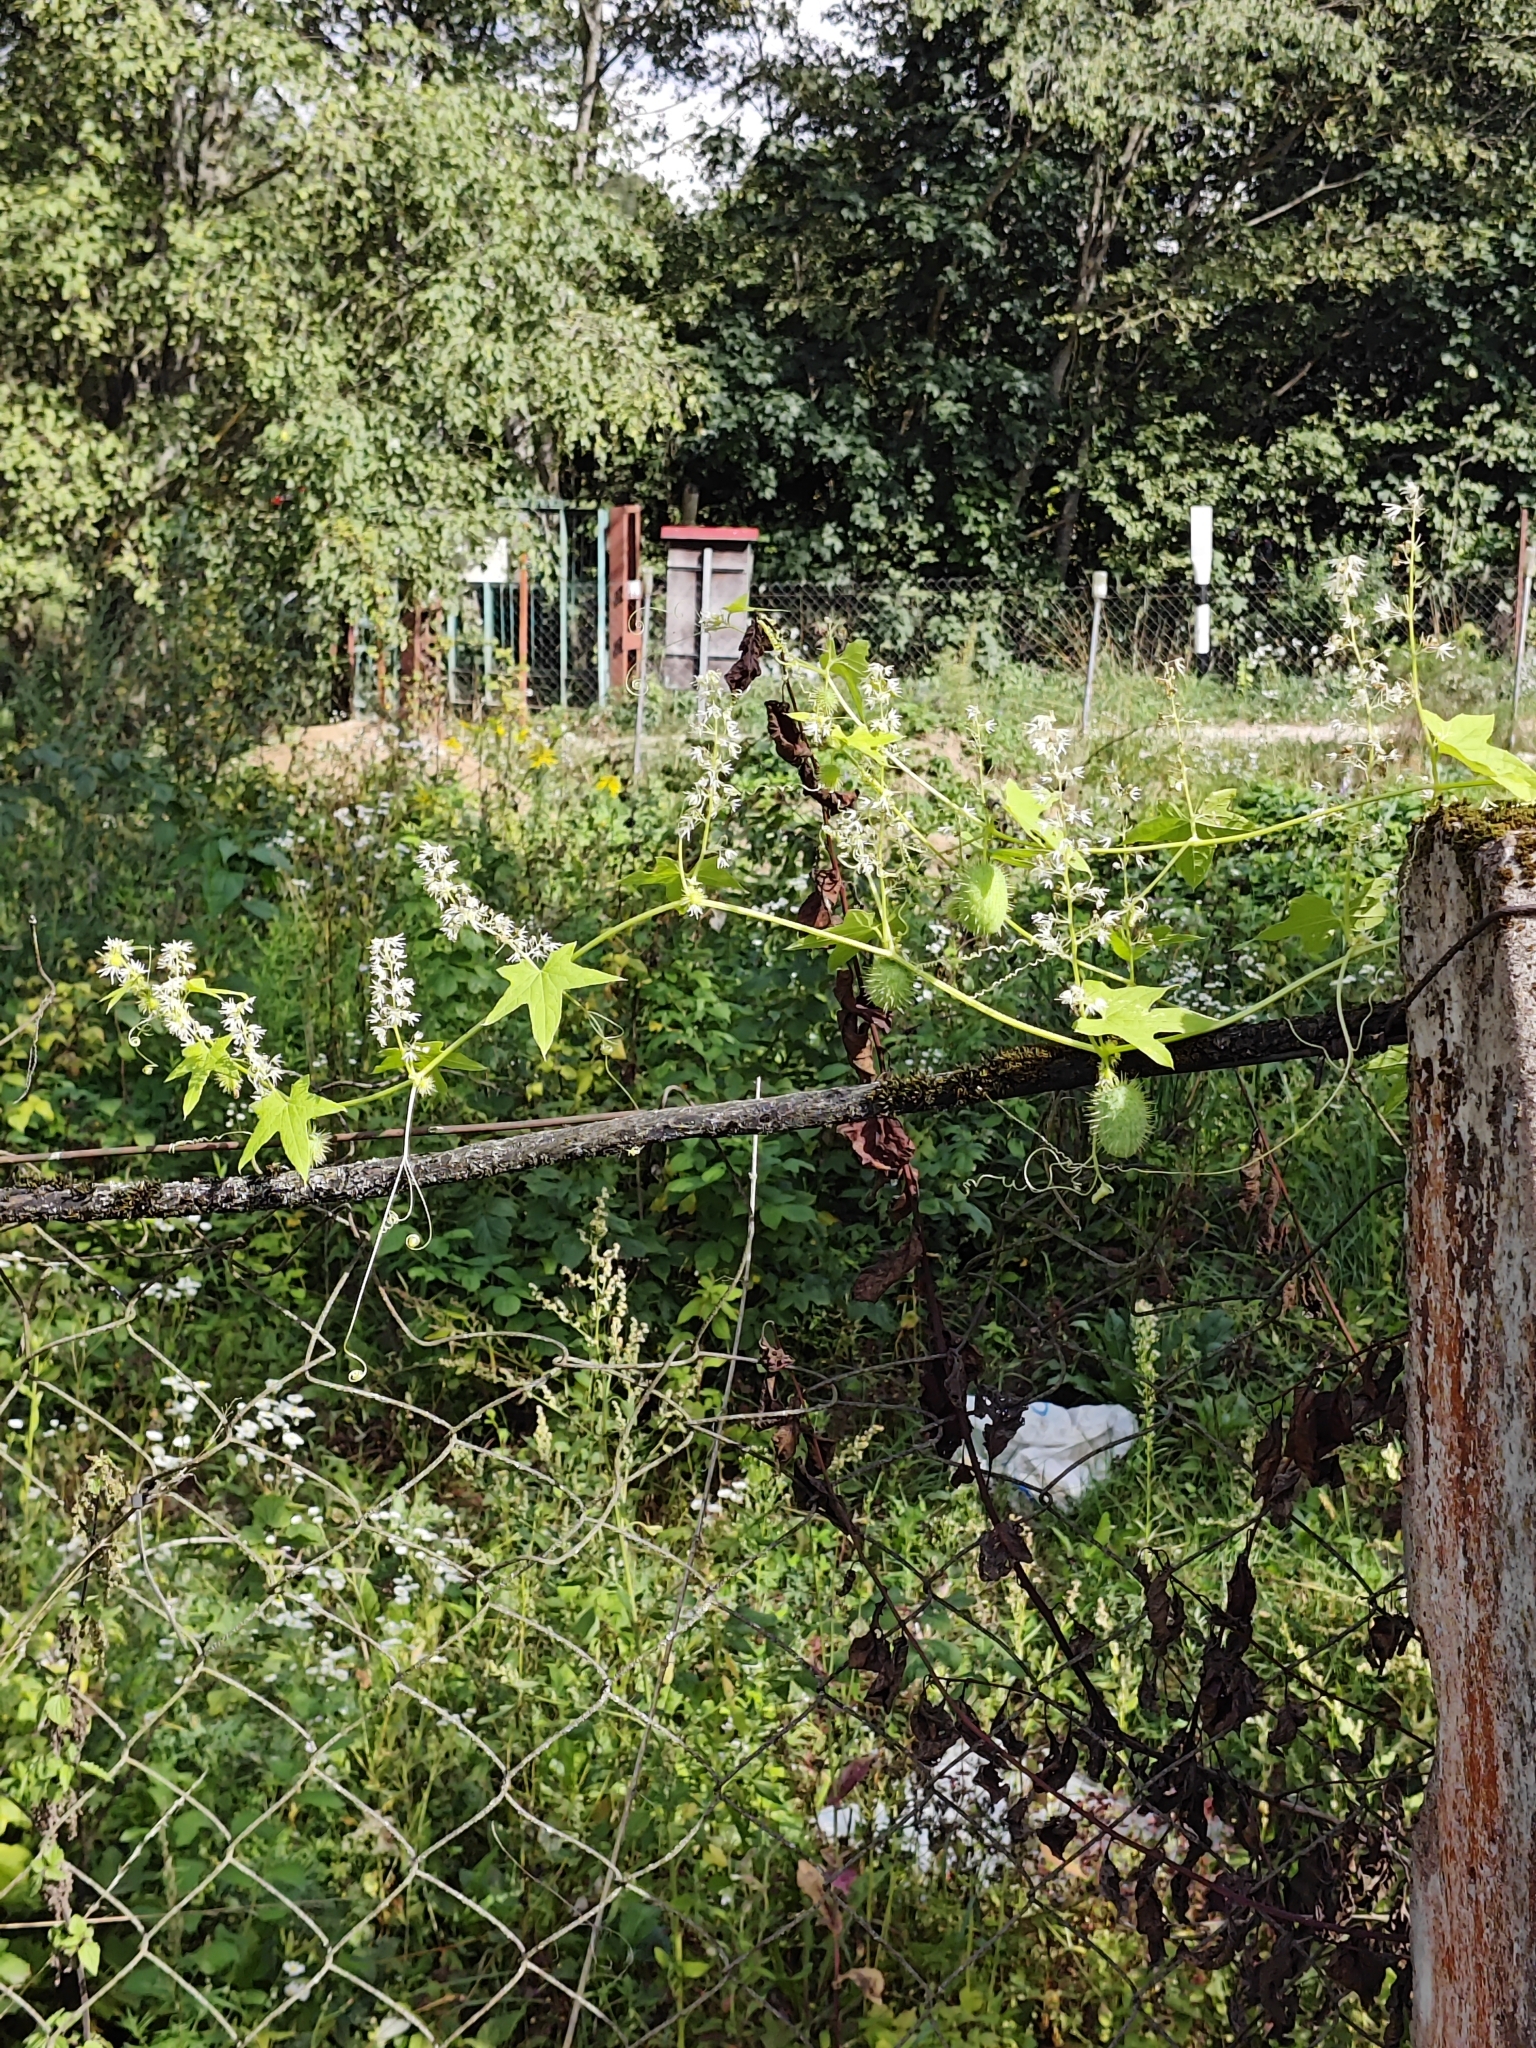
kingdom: Plantae
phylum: Tracheophyta
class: Magnoliopsida
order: Cucurbitales
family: Cucurbitaceae
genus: Echinocystis
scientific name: Echinocystis lobata
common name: Wild cucumber
